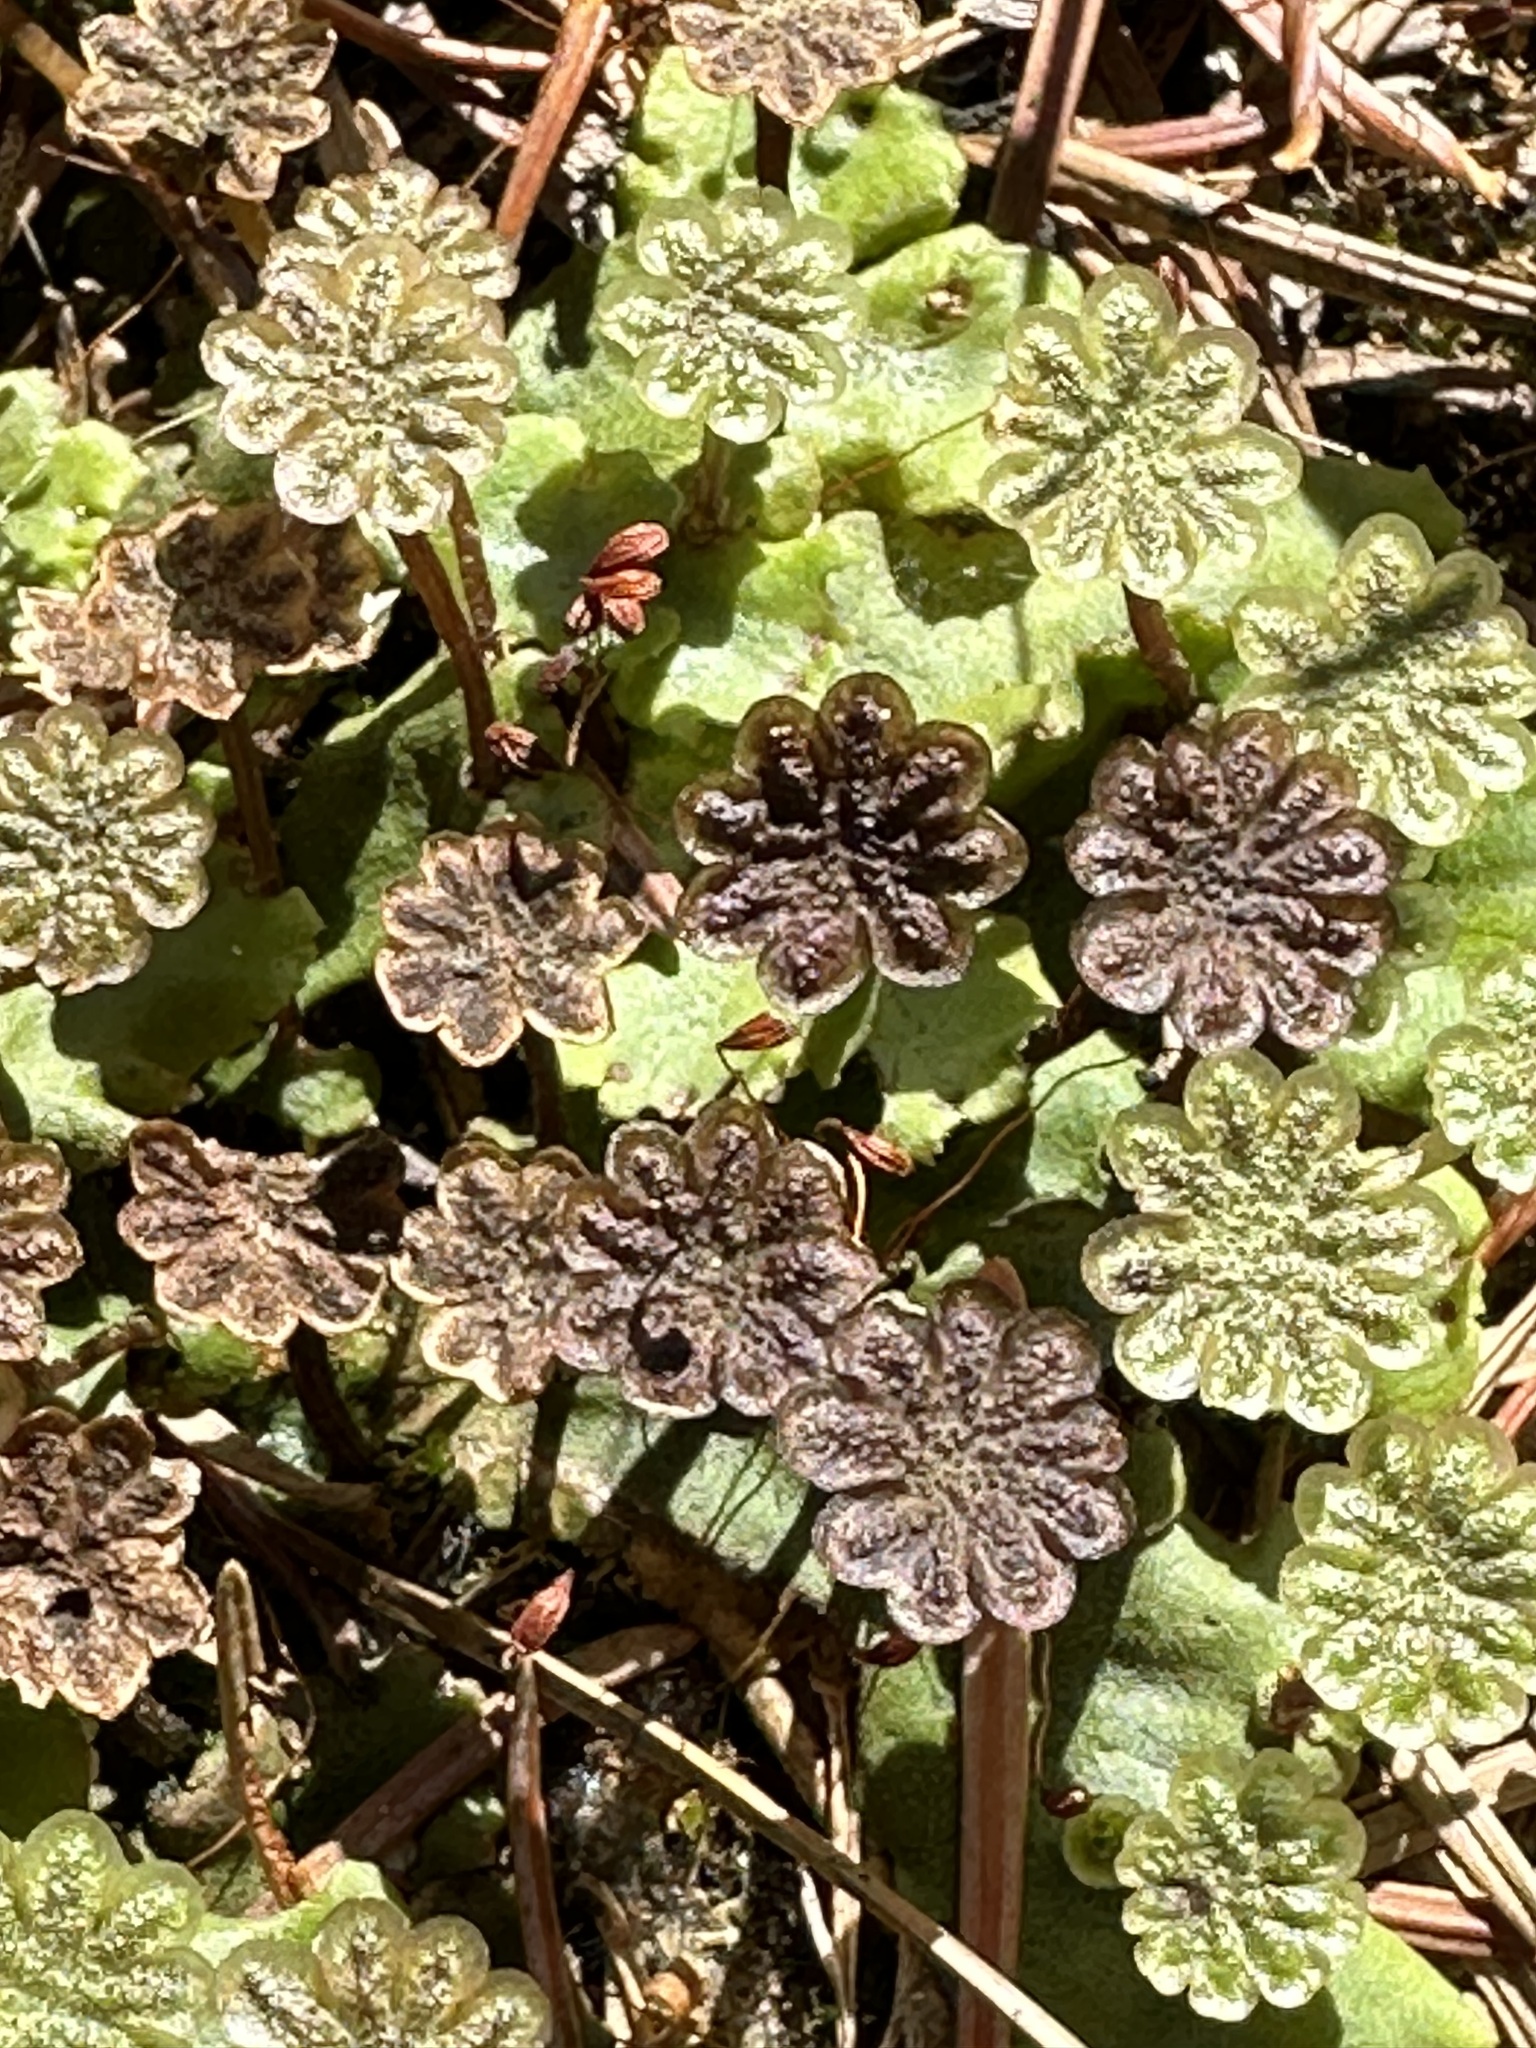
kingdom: Plantae
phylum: Marchantiophyta
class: Marchantiopsida
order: Marchantiales
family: Marchantiaceae
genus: Marchantia
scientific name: Marchantia polymorpha
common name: Common liverwort
